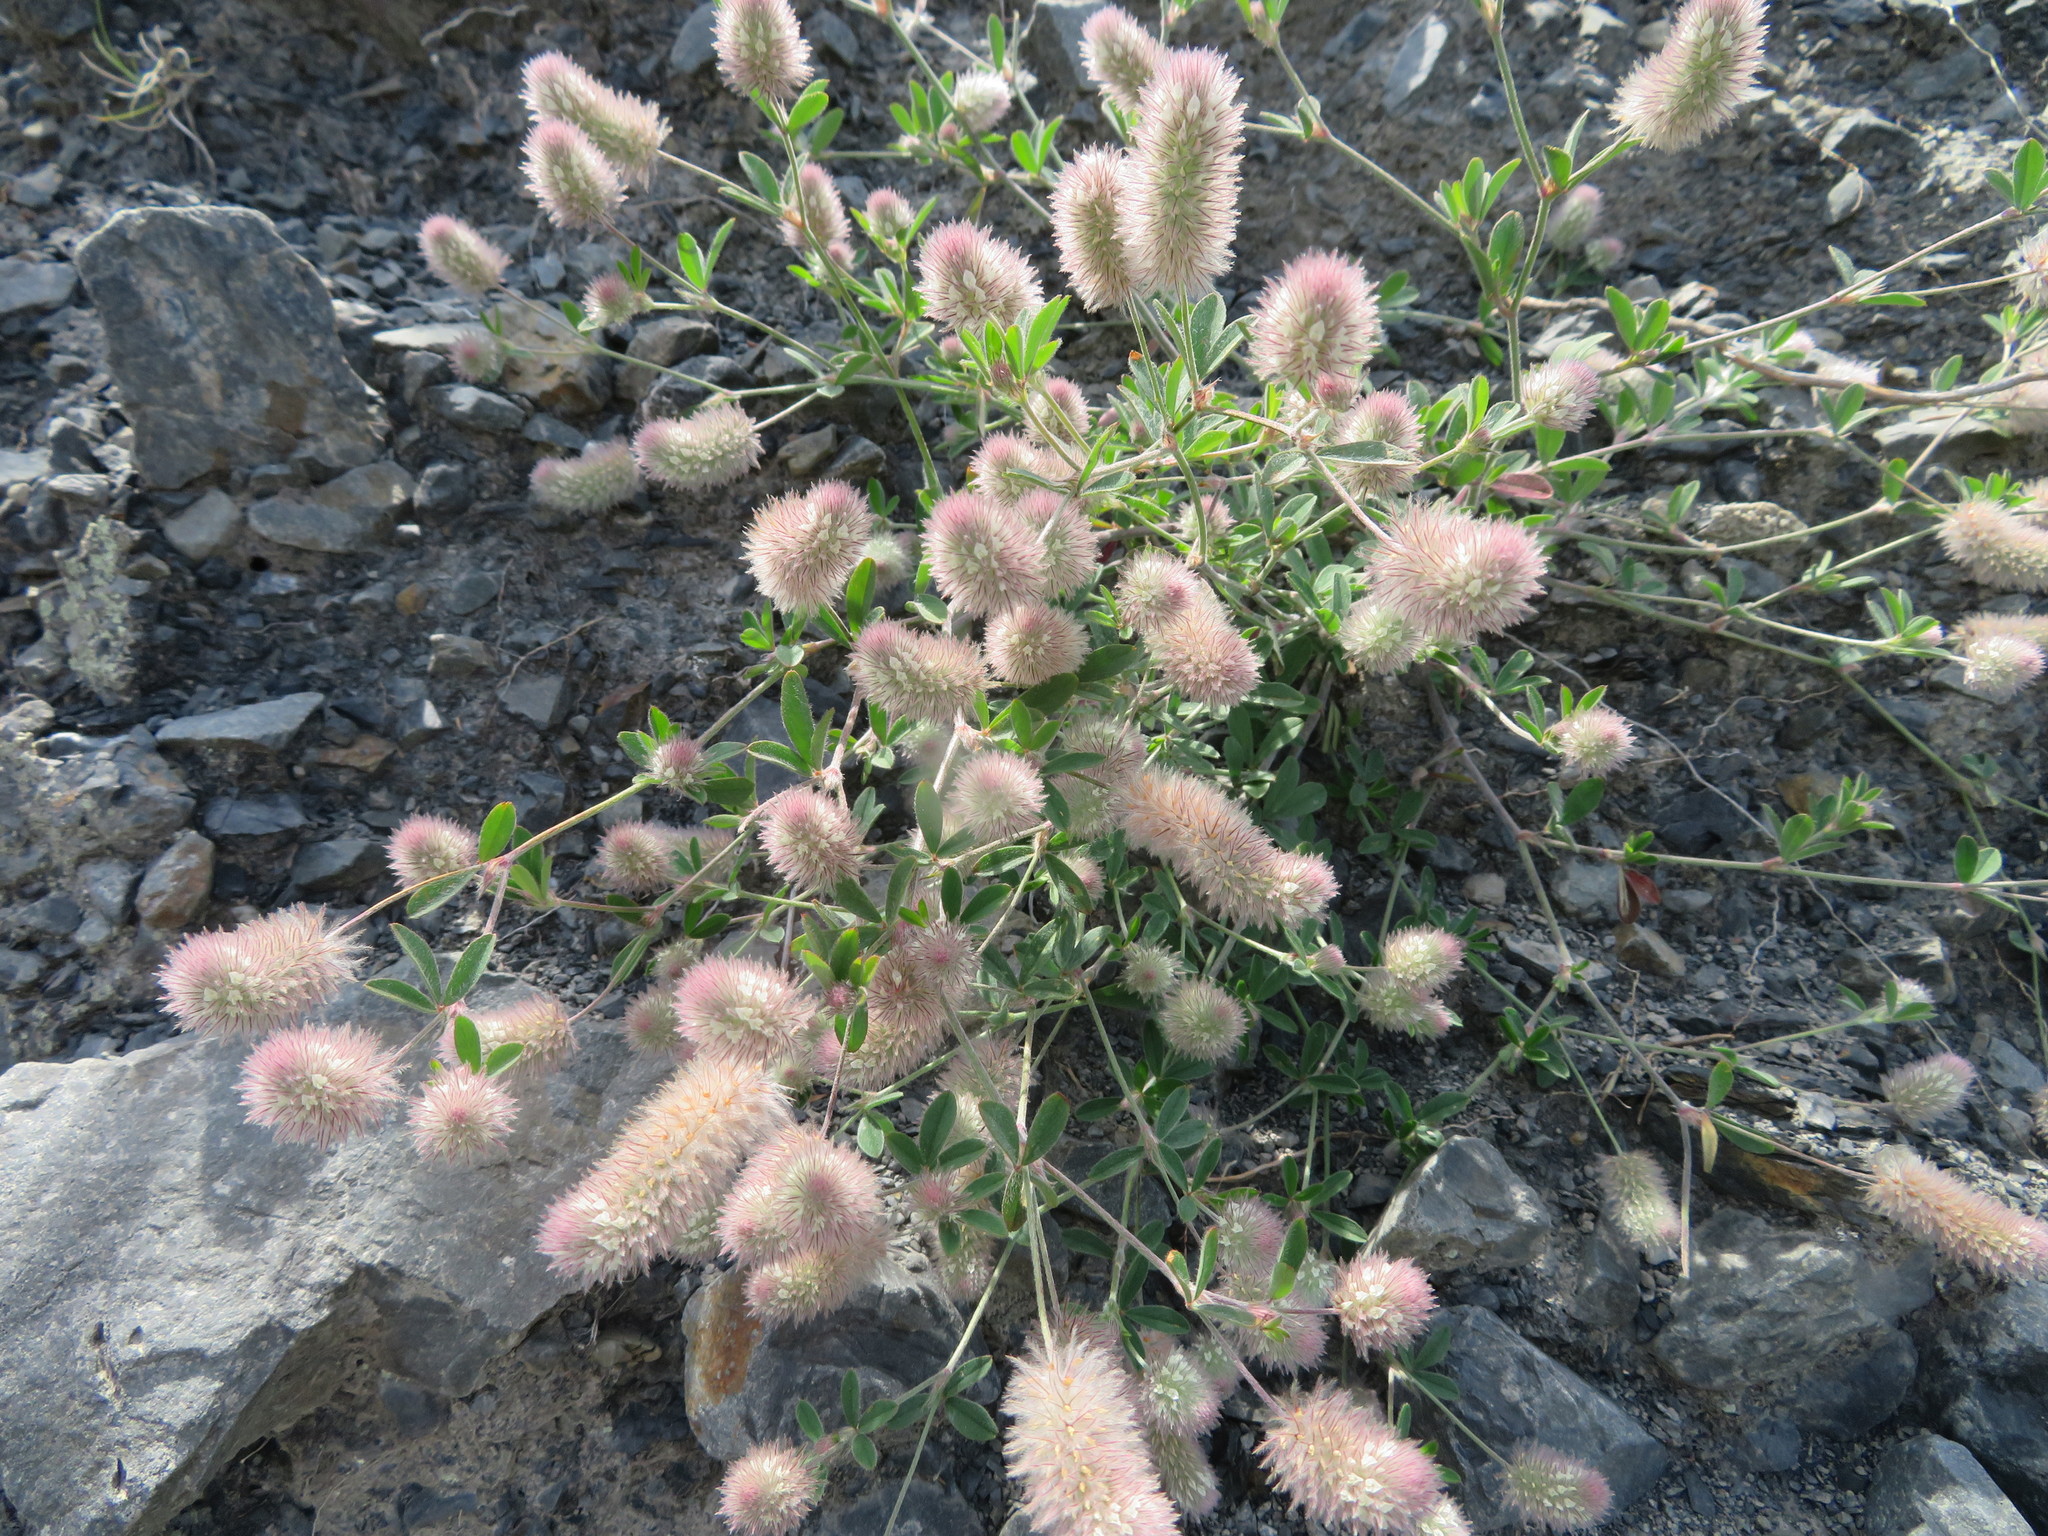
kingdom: Plantae
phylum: Tracheophyta
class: Magnoliopsida
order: Fabales
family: Fabaceae
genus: Trifolium
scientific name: Trifolium arvense
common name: Hare's-foot clover
